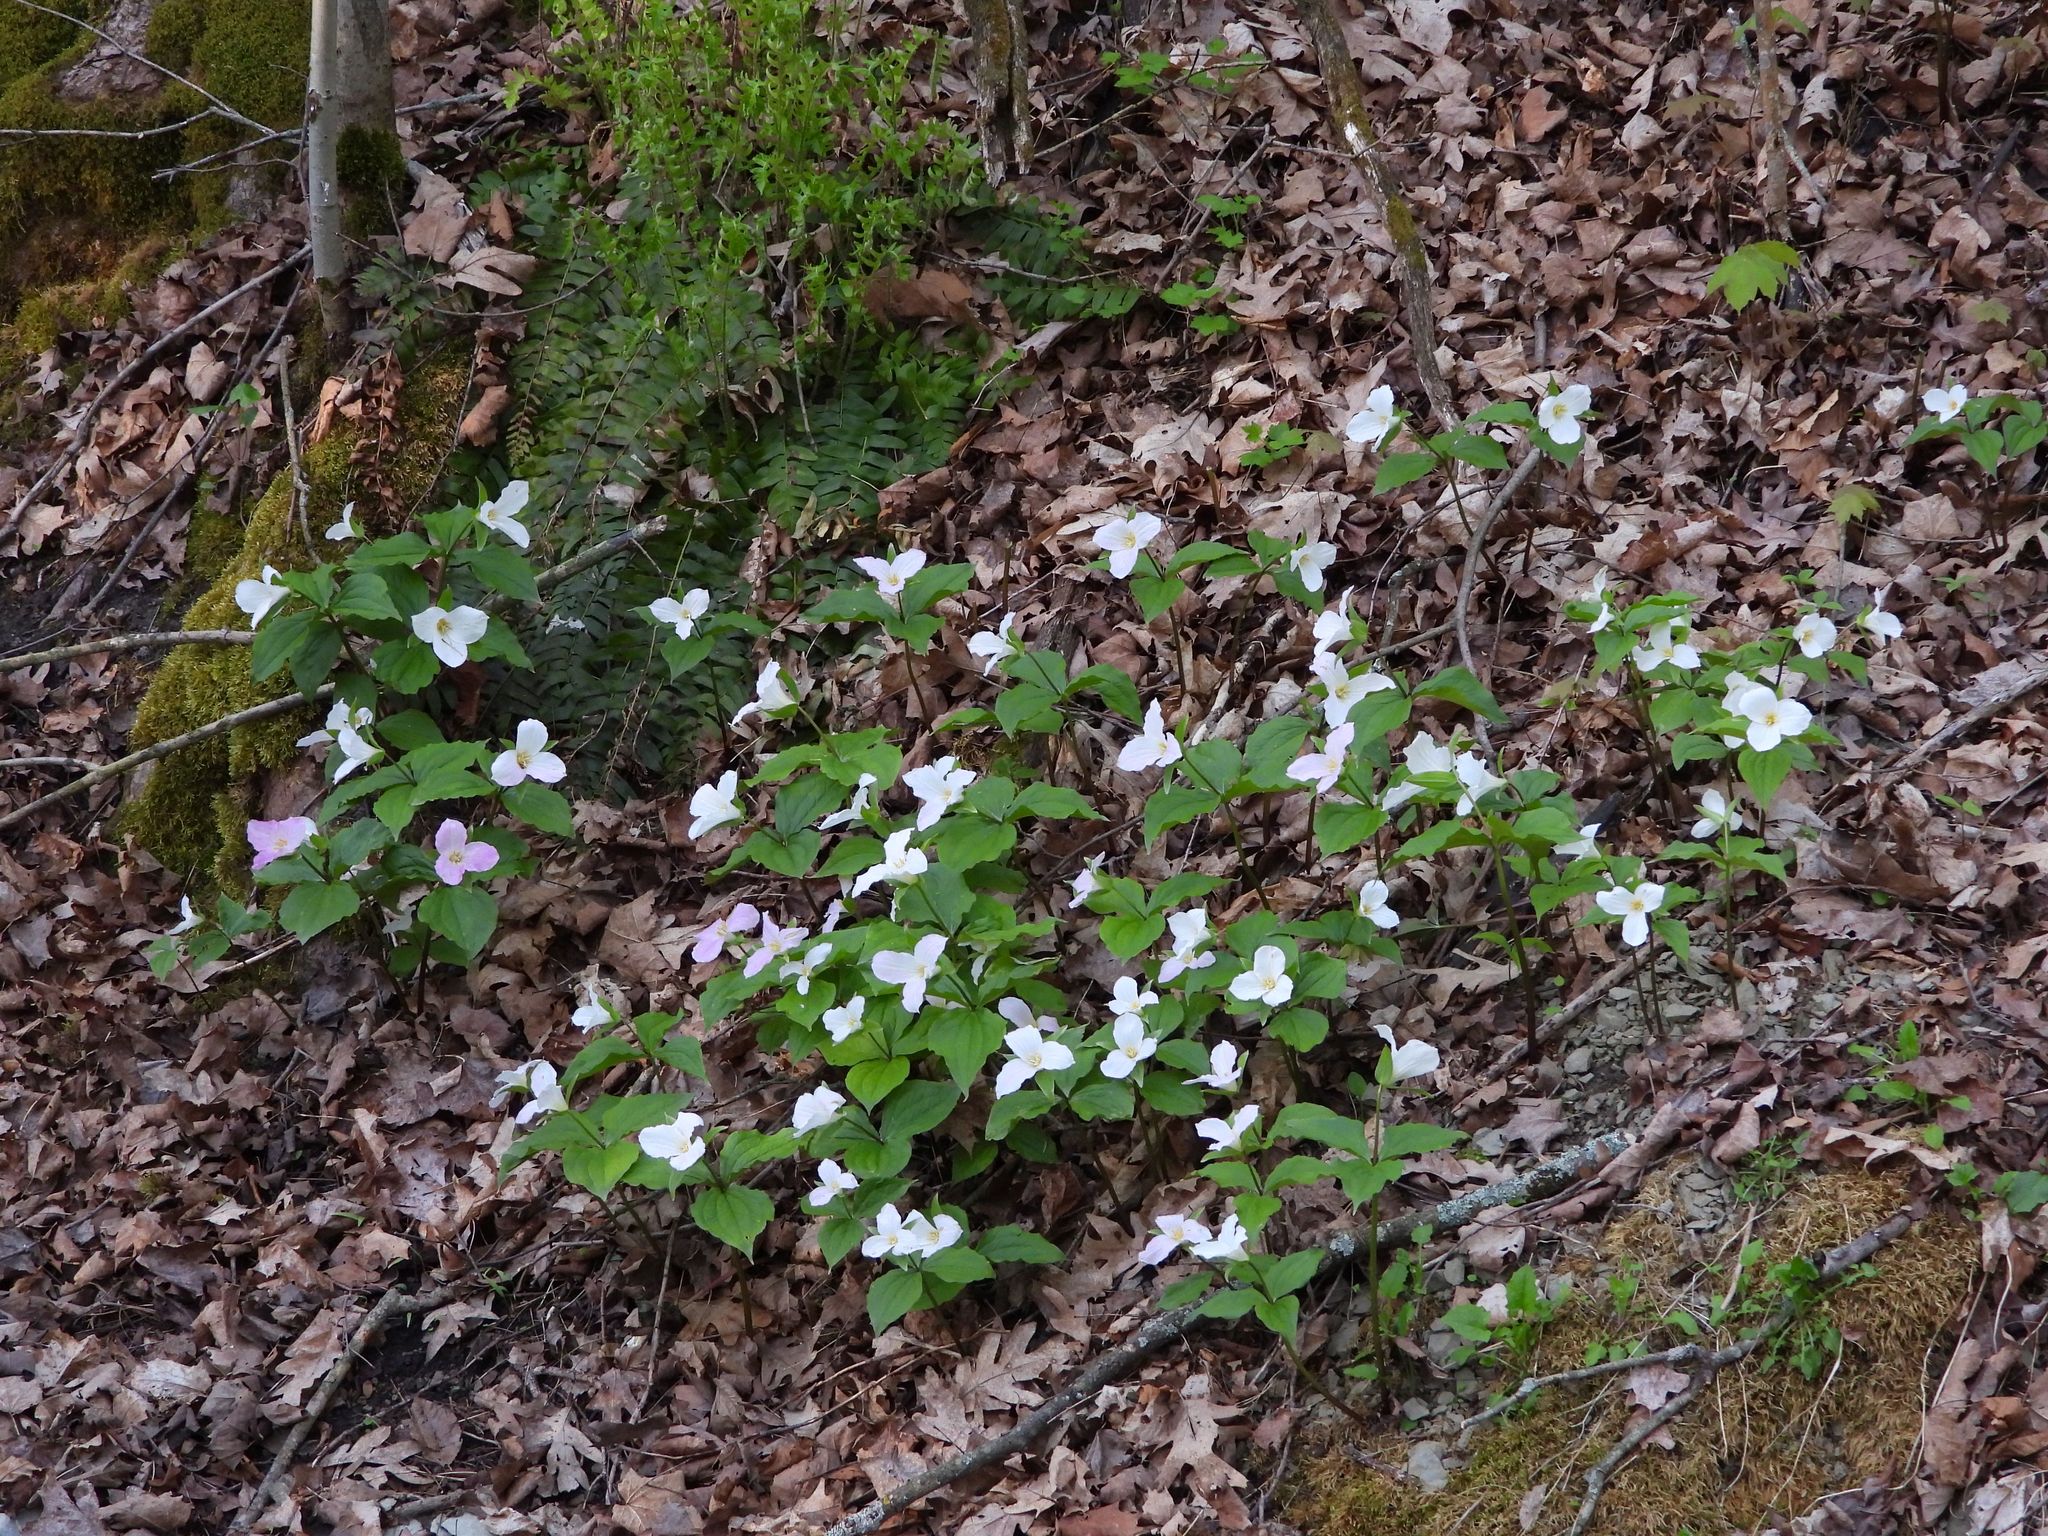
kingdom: Plantae
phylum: Tracheophyta
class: Liliopsida
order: Liliales
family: Melanthiaceae
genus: Trillium
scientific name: Trillium grandiflorum
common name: Great white trillium
